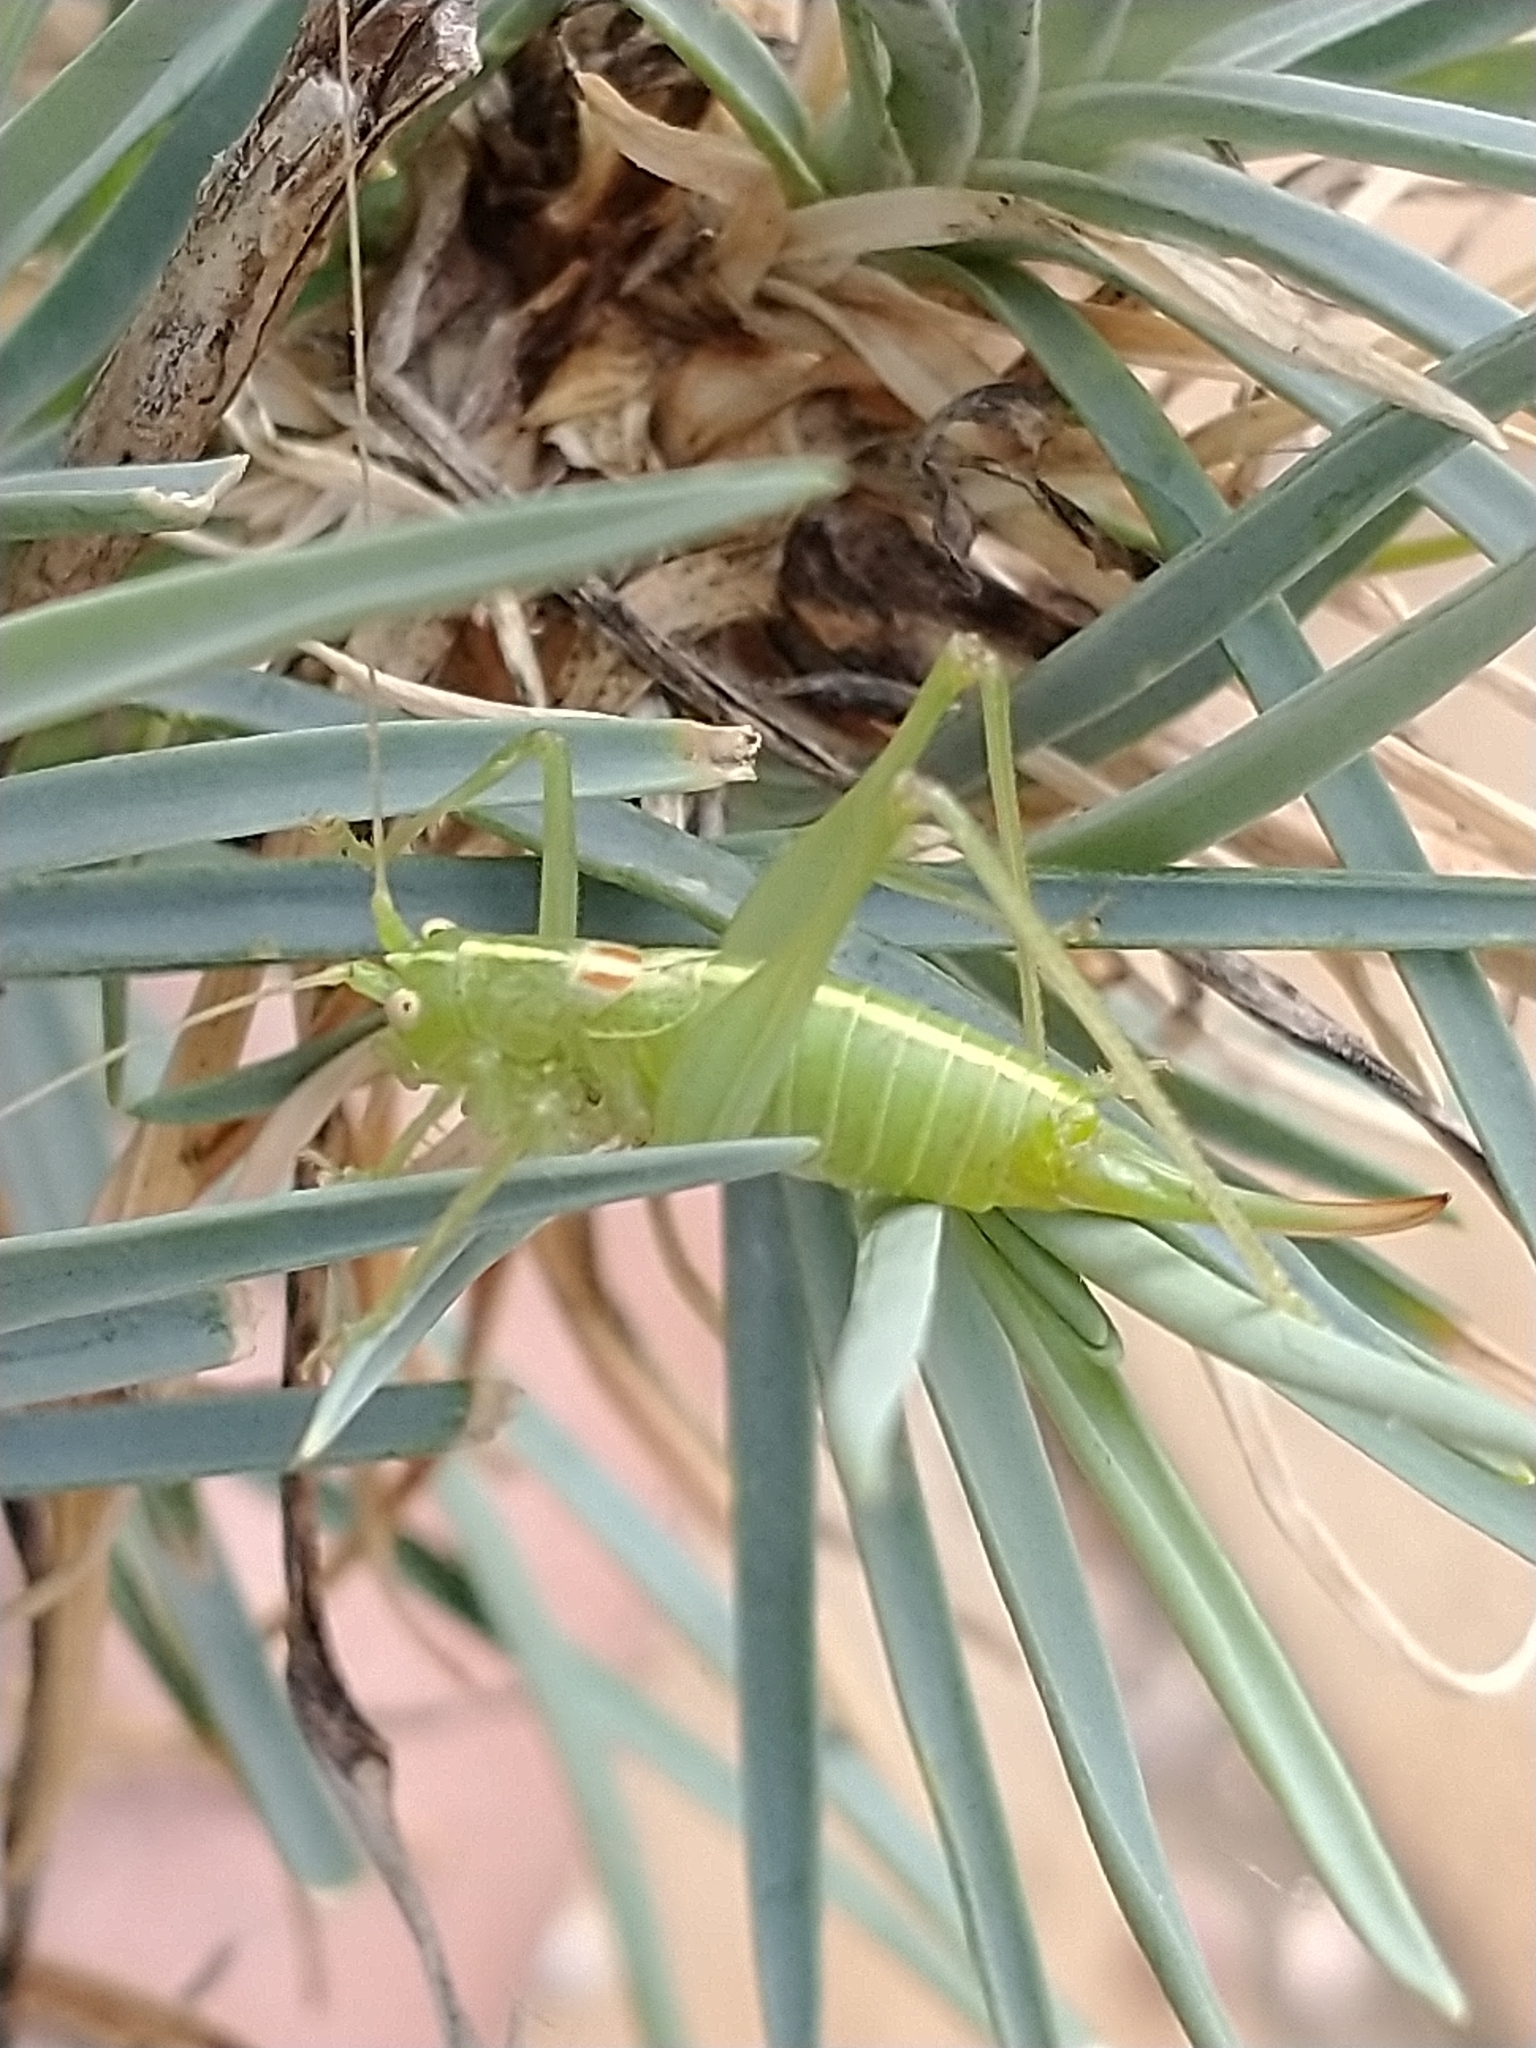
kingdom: Animalia
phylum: Arthropoda
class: Insecta
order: Orthoptera
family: Tettigoniidae
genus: Meconema
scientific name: Meconema meridionale
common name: Southern oak bush-cricket
